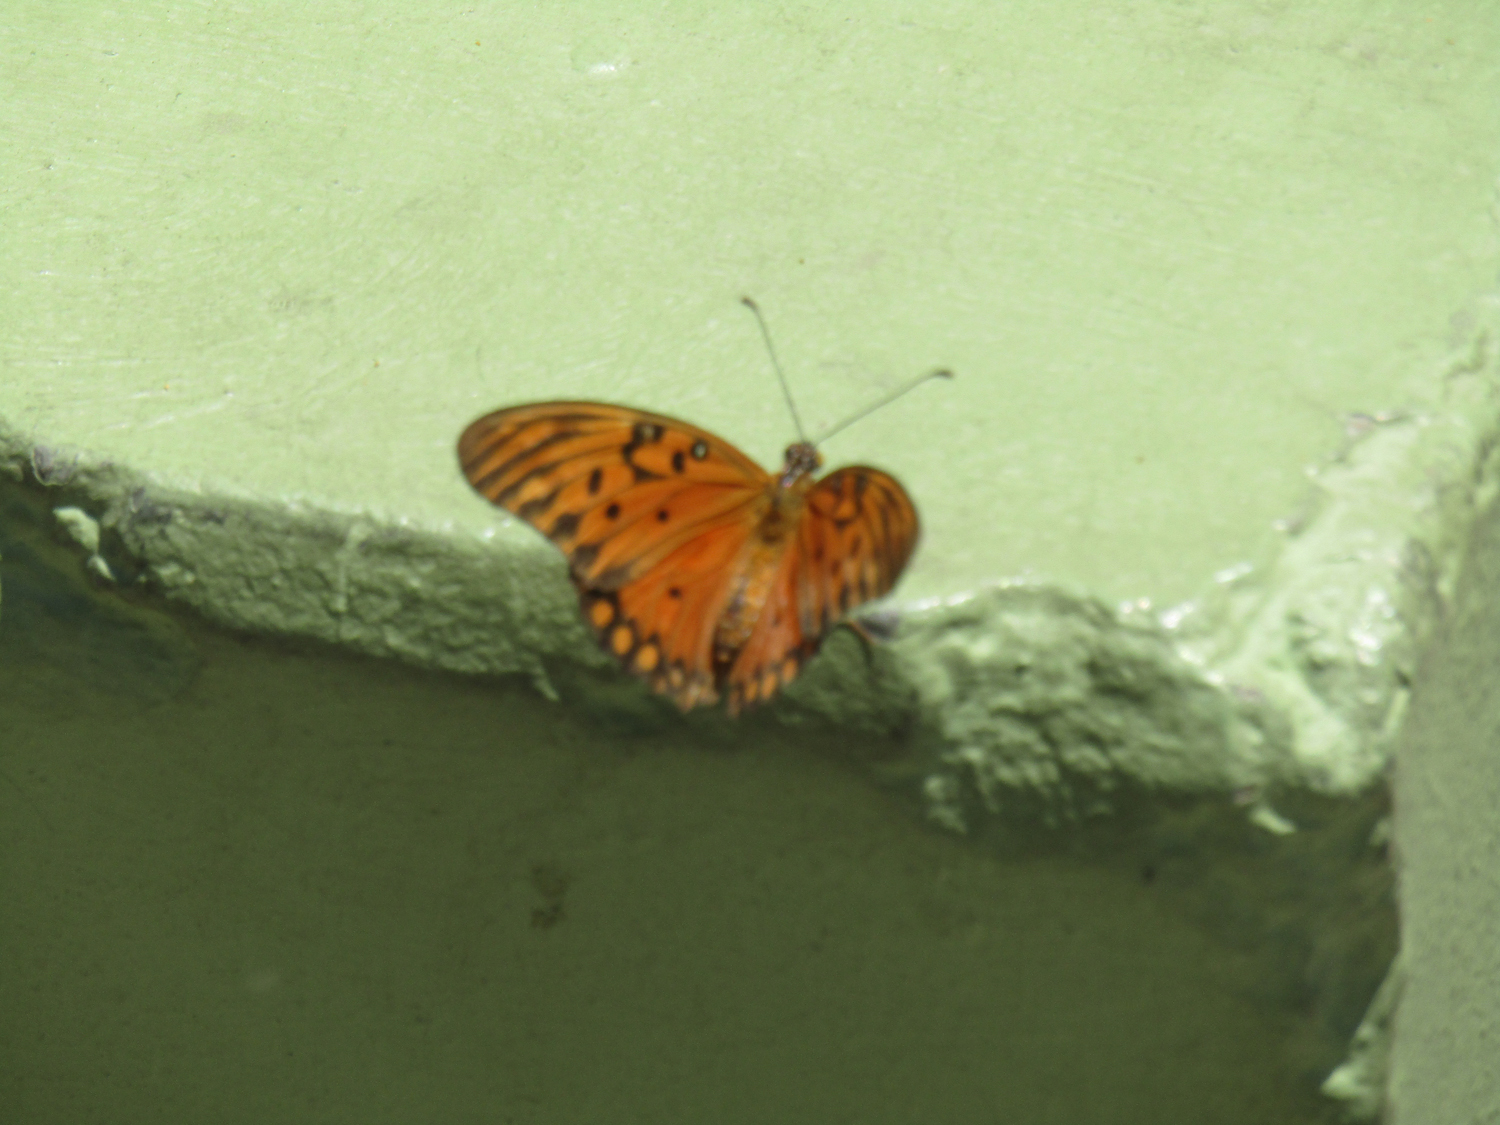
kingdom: Animalia
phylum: Arthropoda
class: Insecta
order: Lepidoptera
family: Nymphalidae
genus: Dione
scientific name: Dione vanillae
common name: Gulf fritillary
